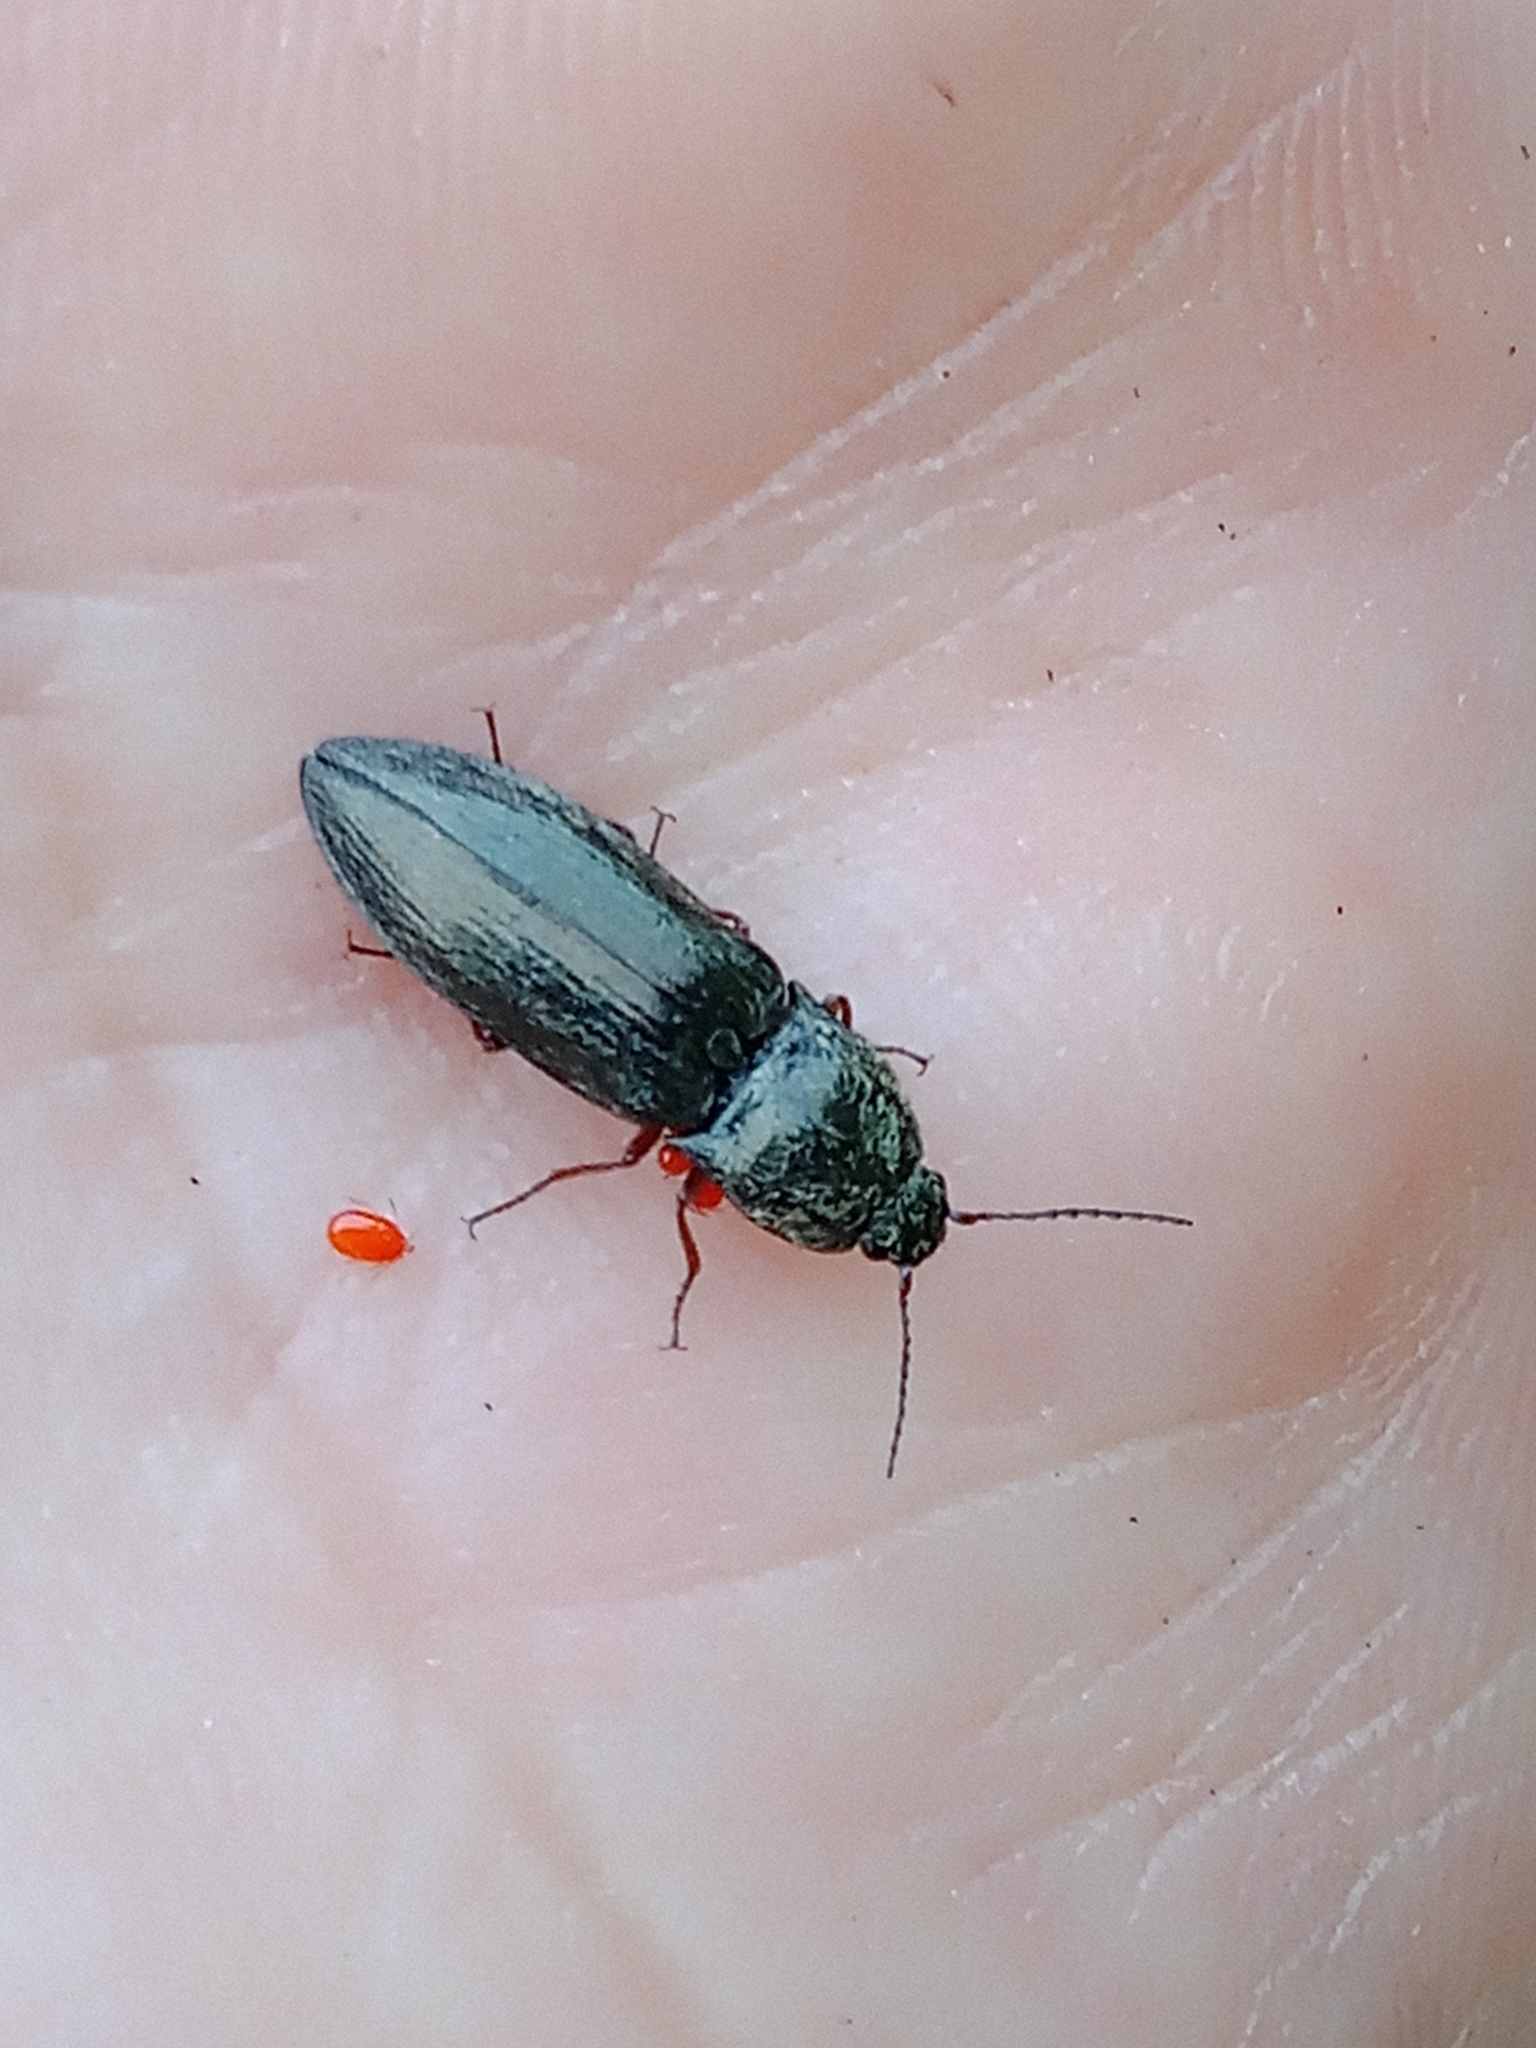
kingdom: Animalia
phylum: Arthropoda
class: Insecta
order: Coleoptera
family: Elateridae
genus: Paraphotistus
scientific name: Paraphotistus nigricornis
